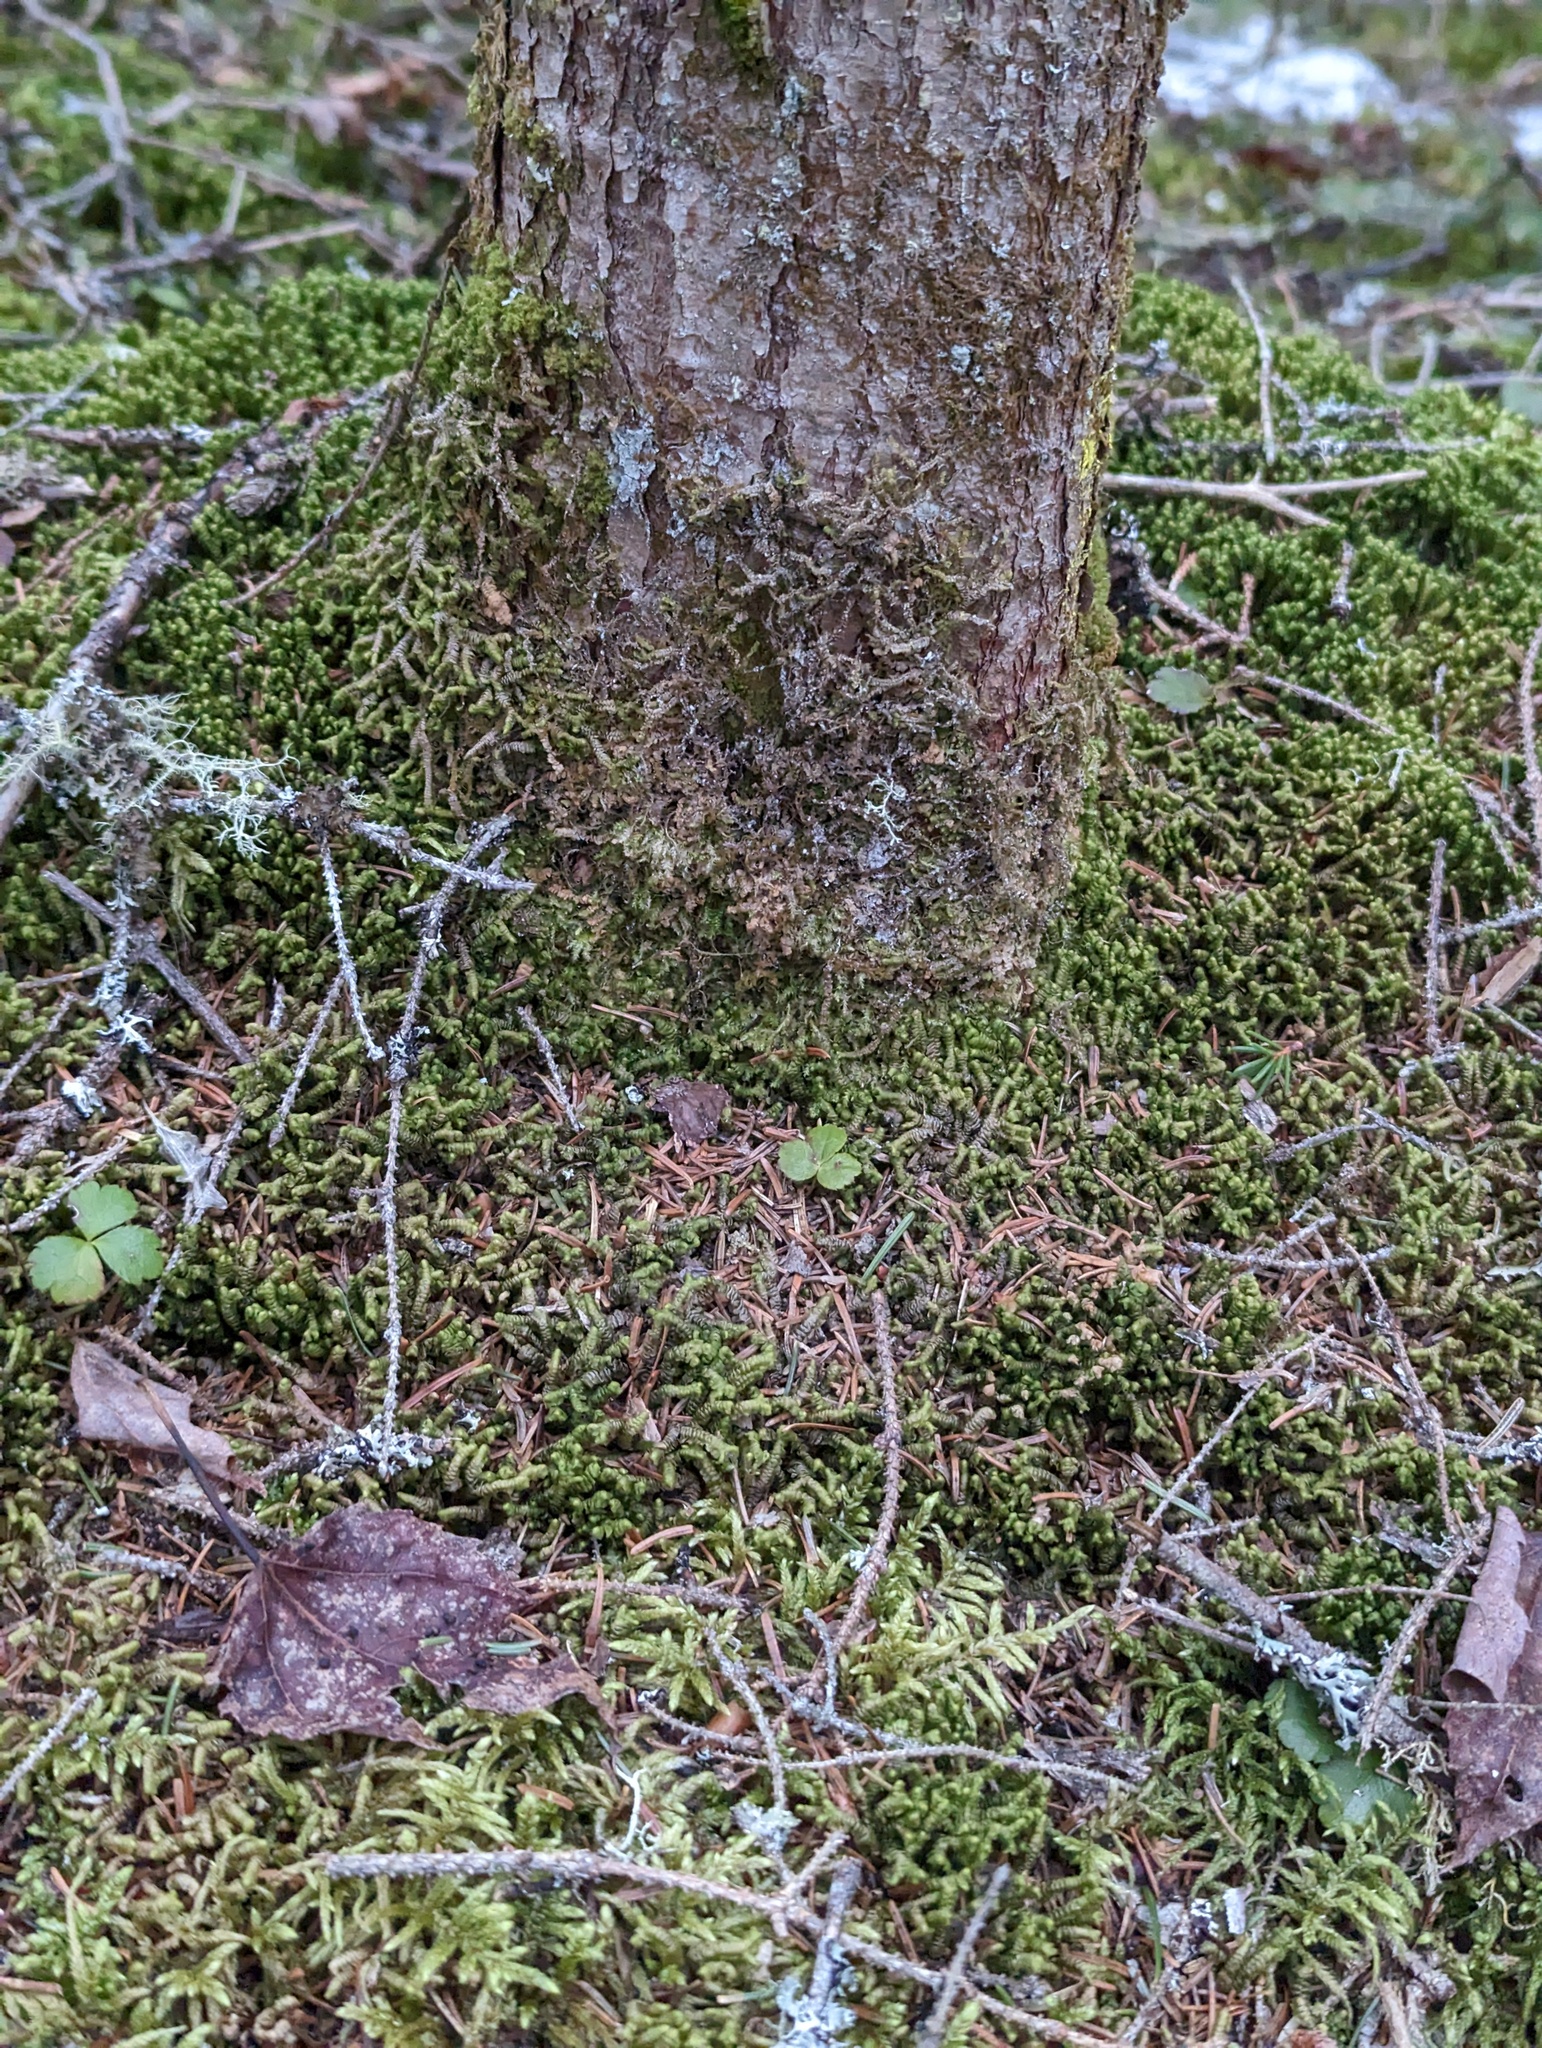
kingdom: Plantae
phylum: Tracheophyta
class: Magnoliopsida
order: Ranunculales
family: Ranunculaceae
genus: Coptis
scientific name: Coptis trifolia
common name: Canker-root
